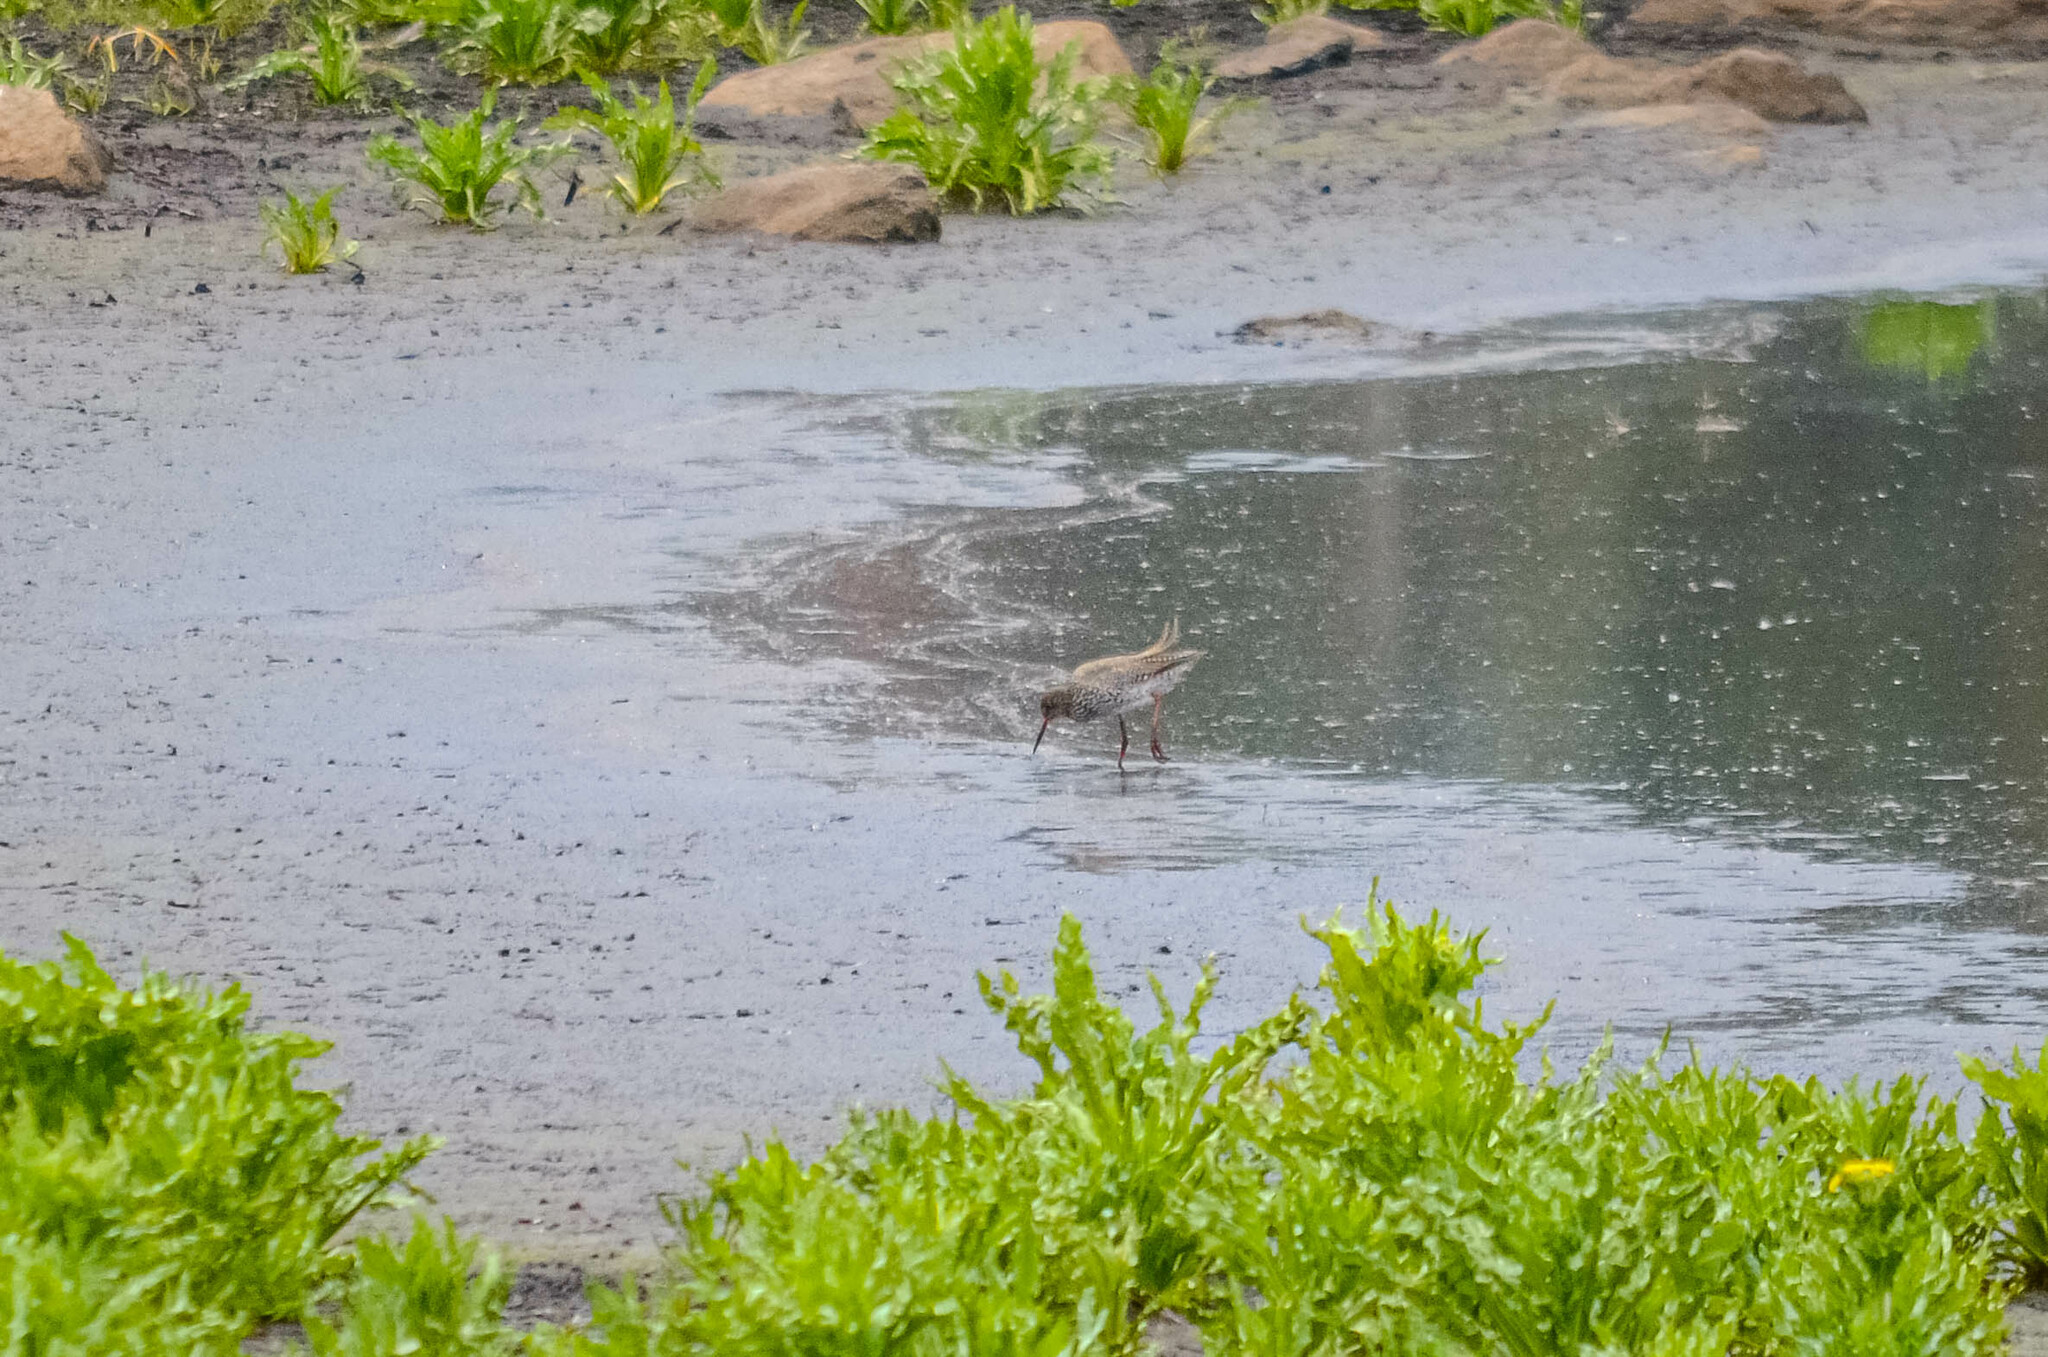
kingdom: Animalia
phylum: Chordata
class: Aves
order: Charadriiformes
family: Scolopacidae
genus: Tringa
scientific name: Tringa totanus
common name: Common redshank
